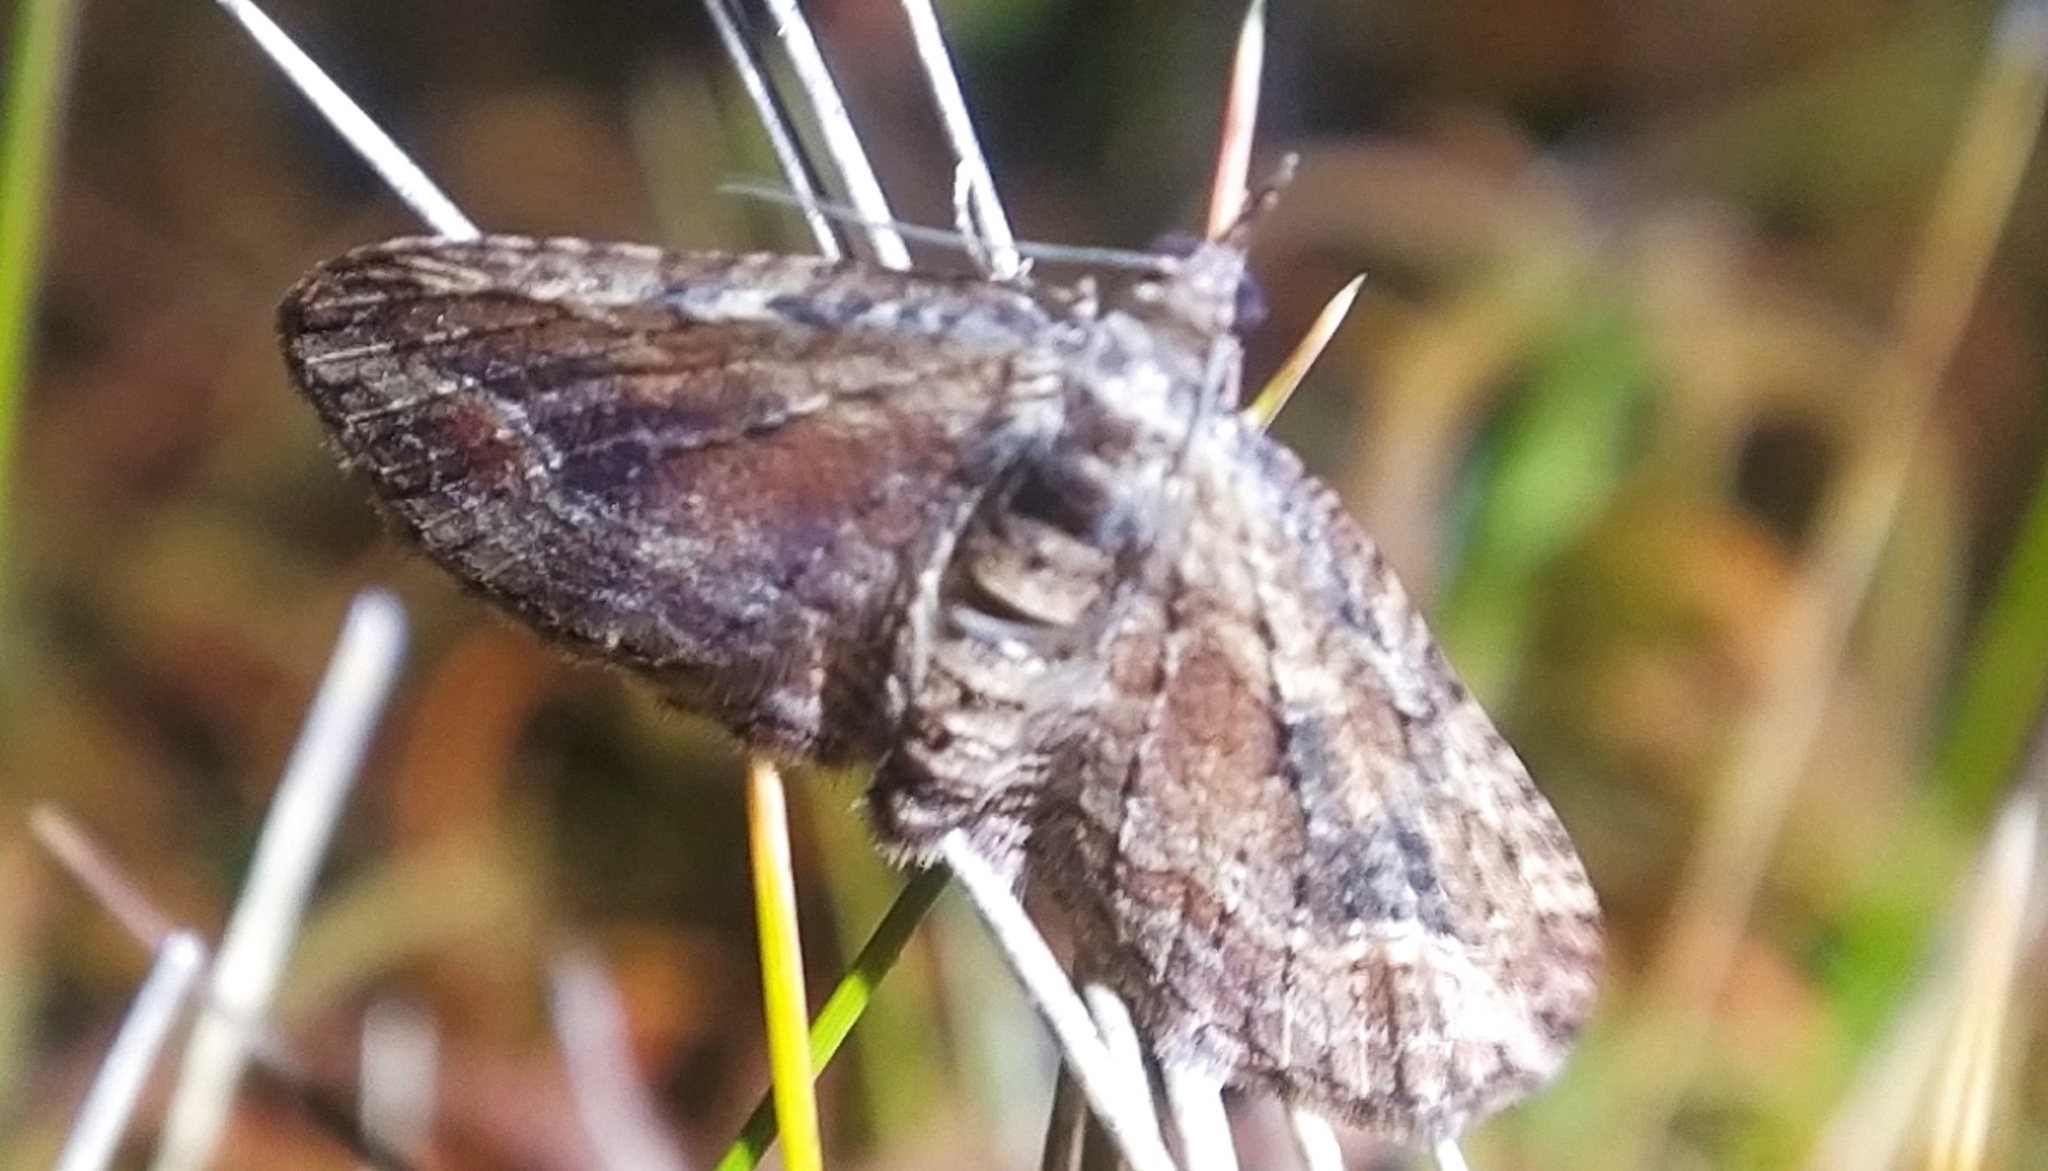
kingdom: Animalia
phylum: Arthropoda
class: Insecta
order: Lepidoptera
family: Geometridae
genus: Chloroclystis
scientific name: Chloroclystis filata
